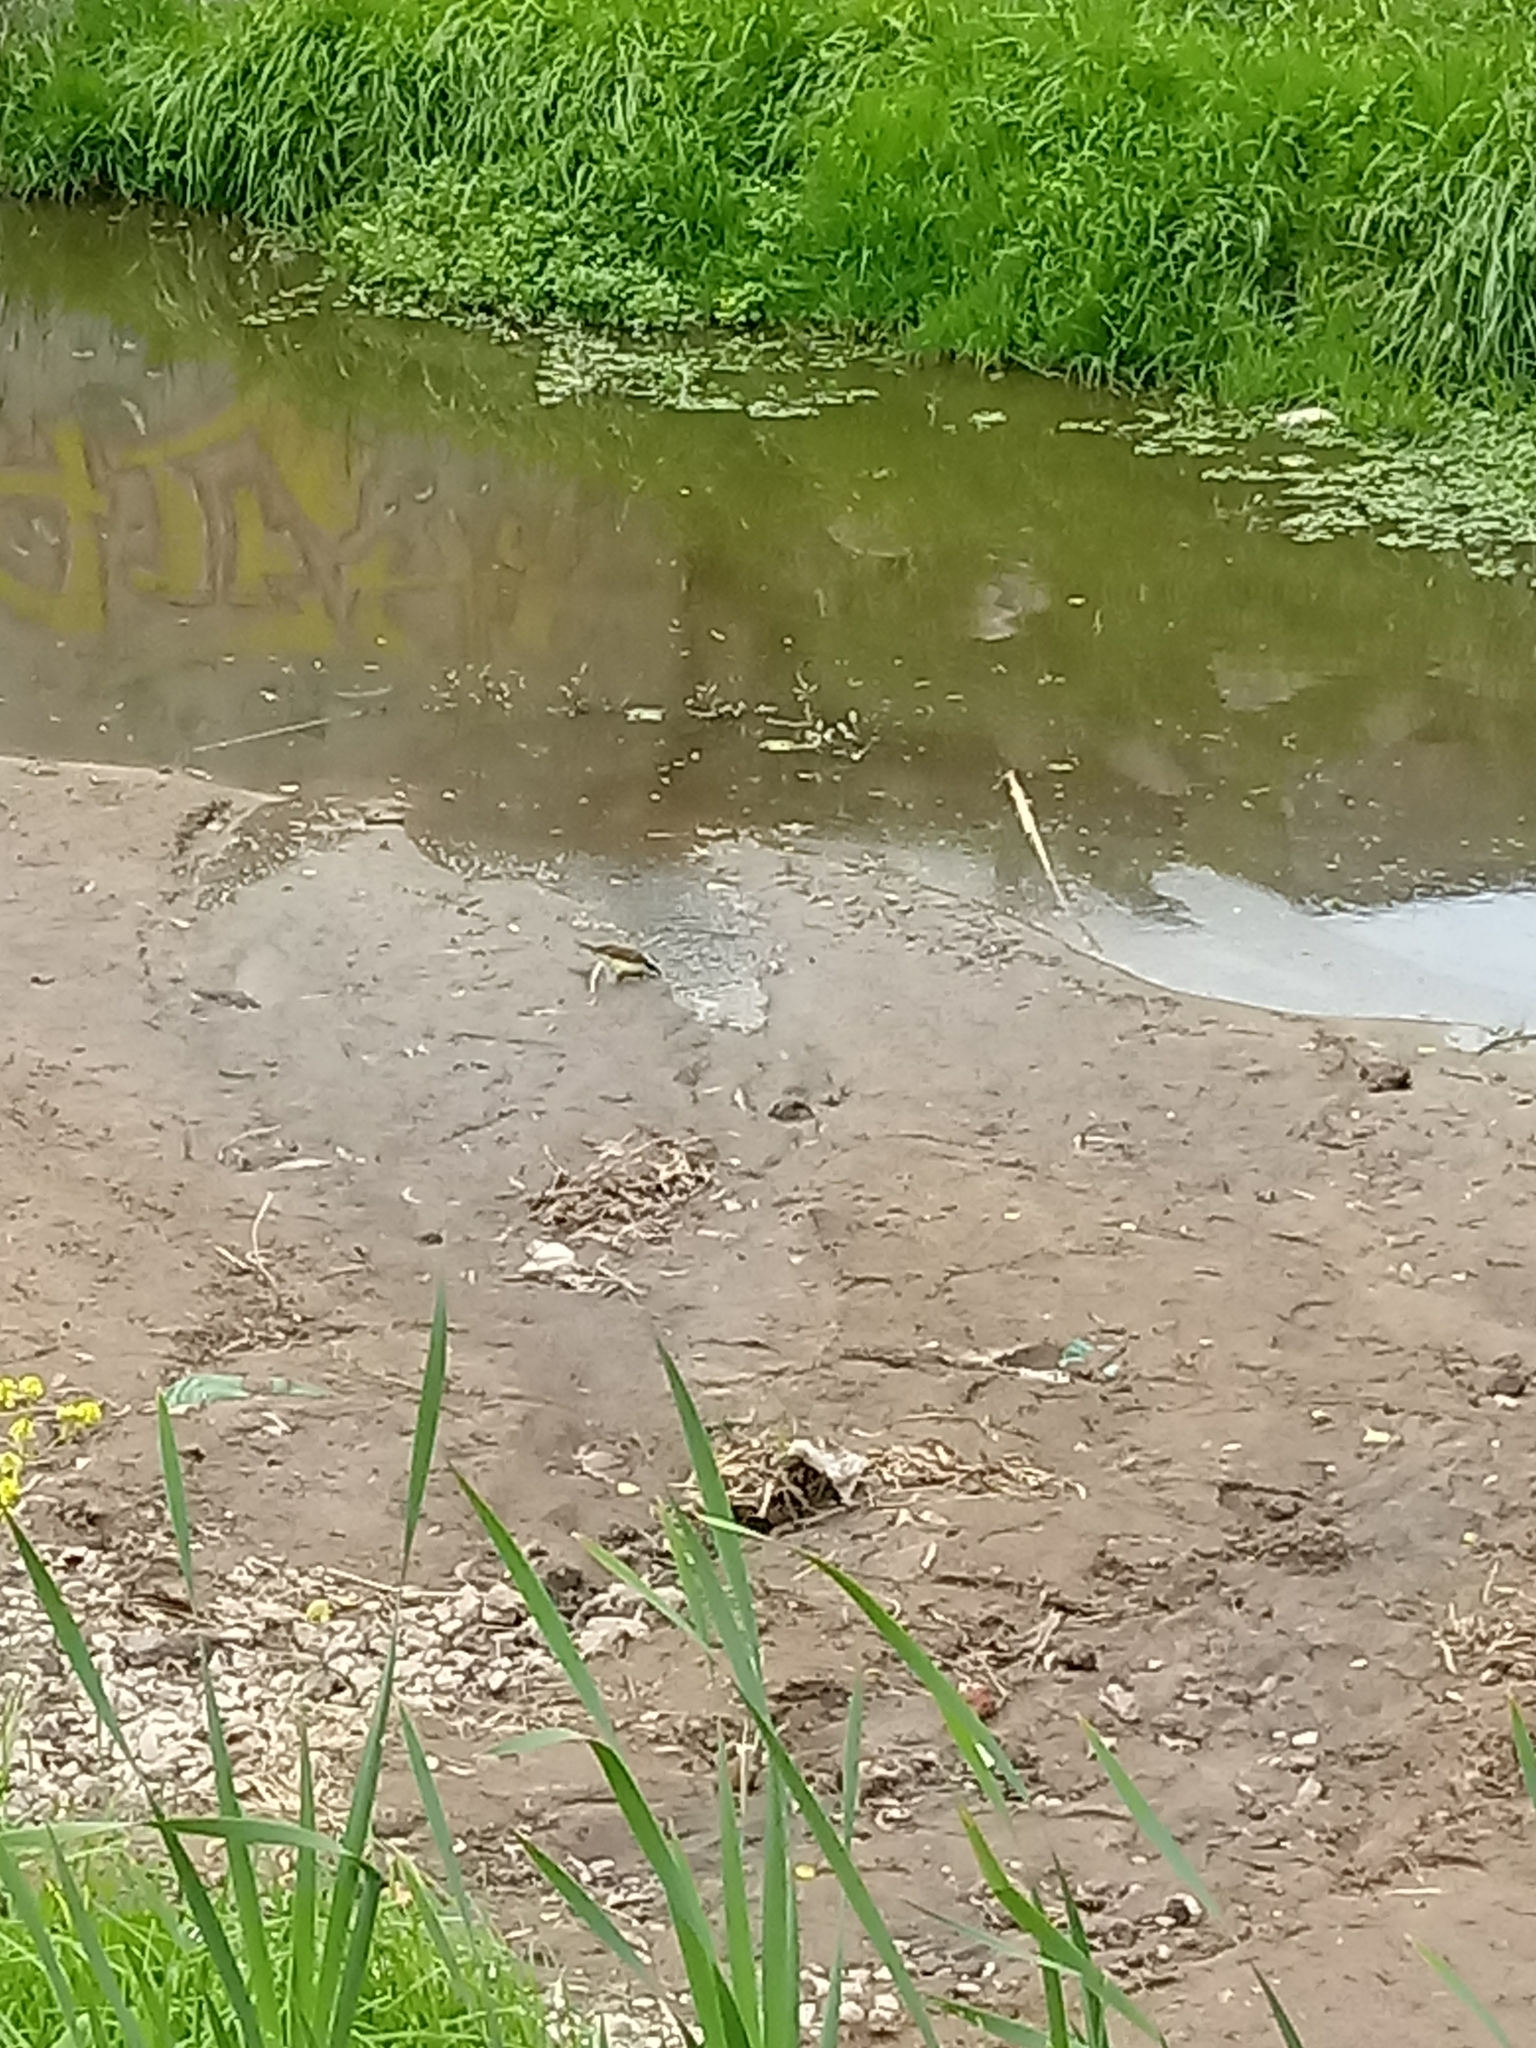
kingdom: Animalia
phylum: Chordata
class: Aves
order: Passeriformes
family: Tyrannidae
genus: Pitangus
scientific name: Pitangus sulphuratus
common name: Great kiskadee
